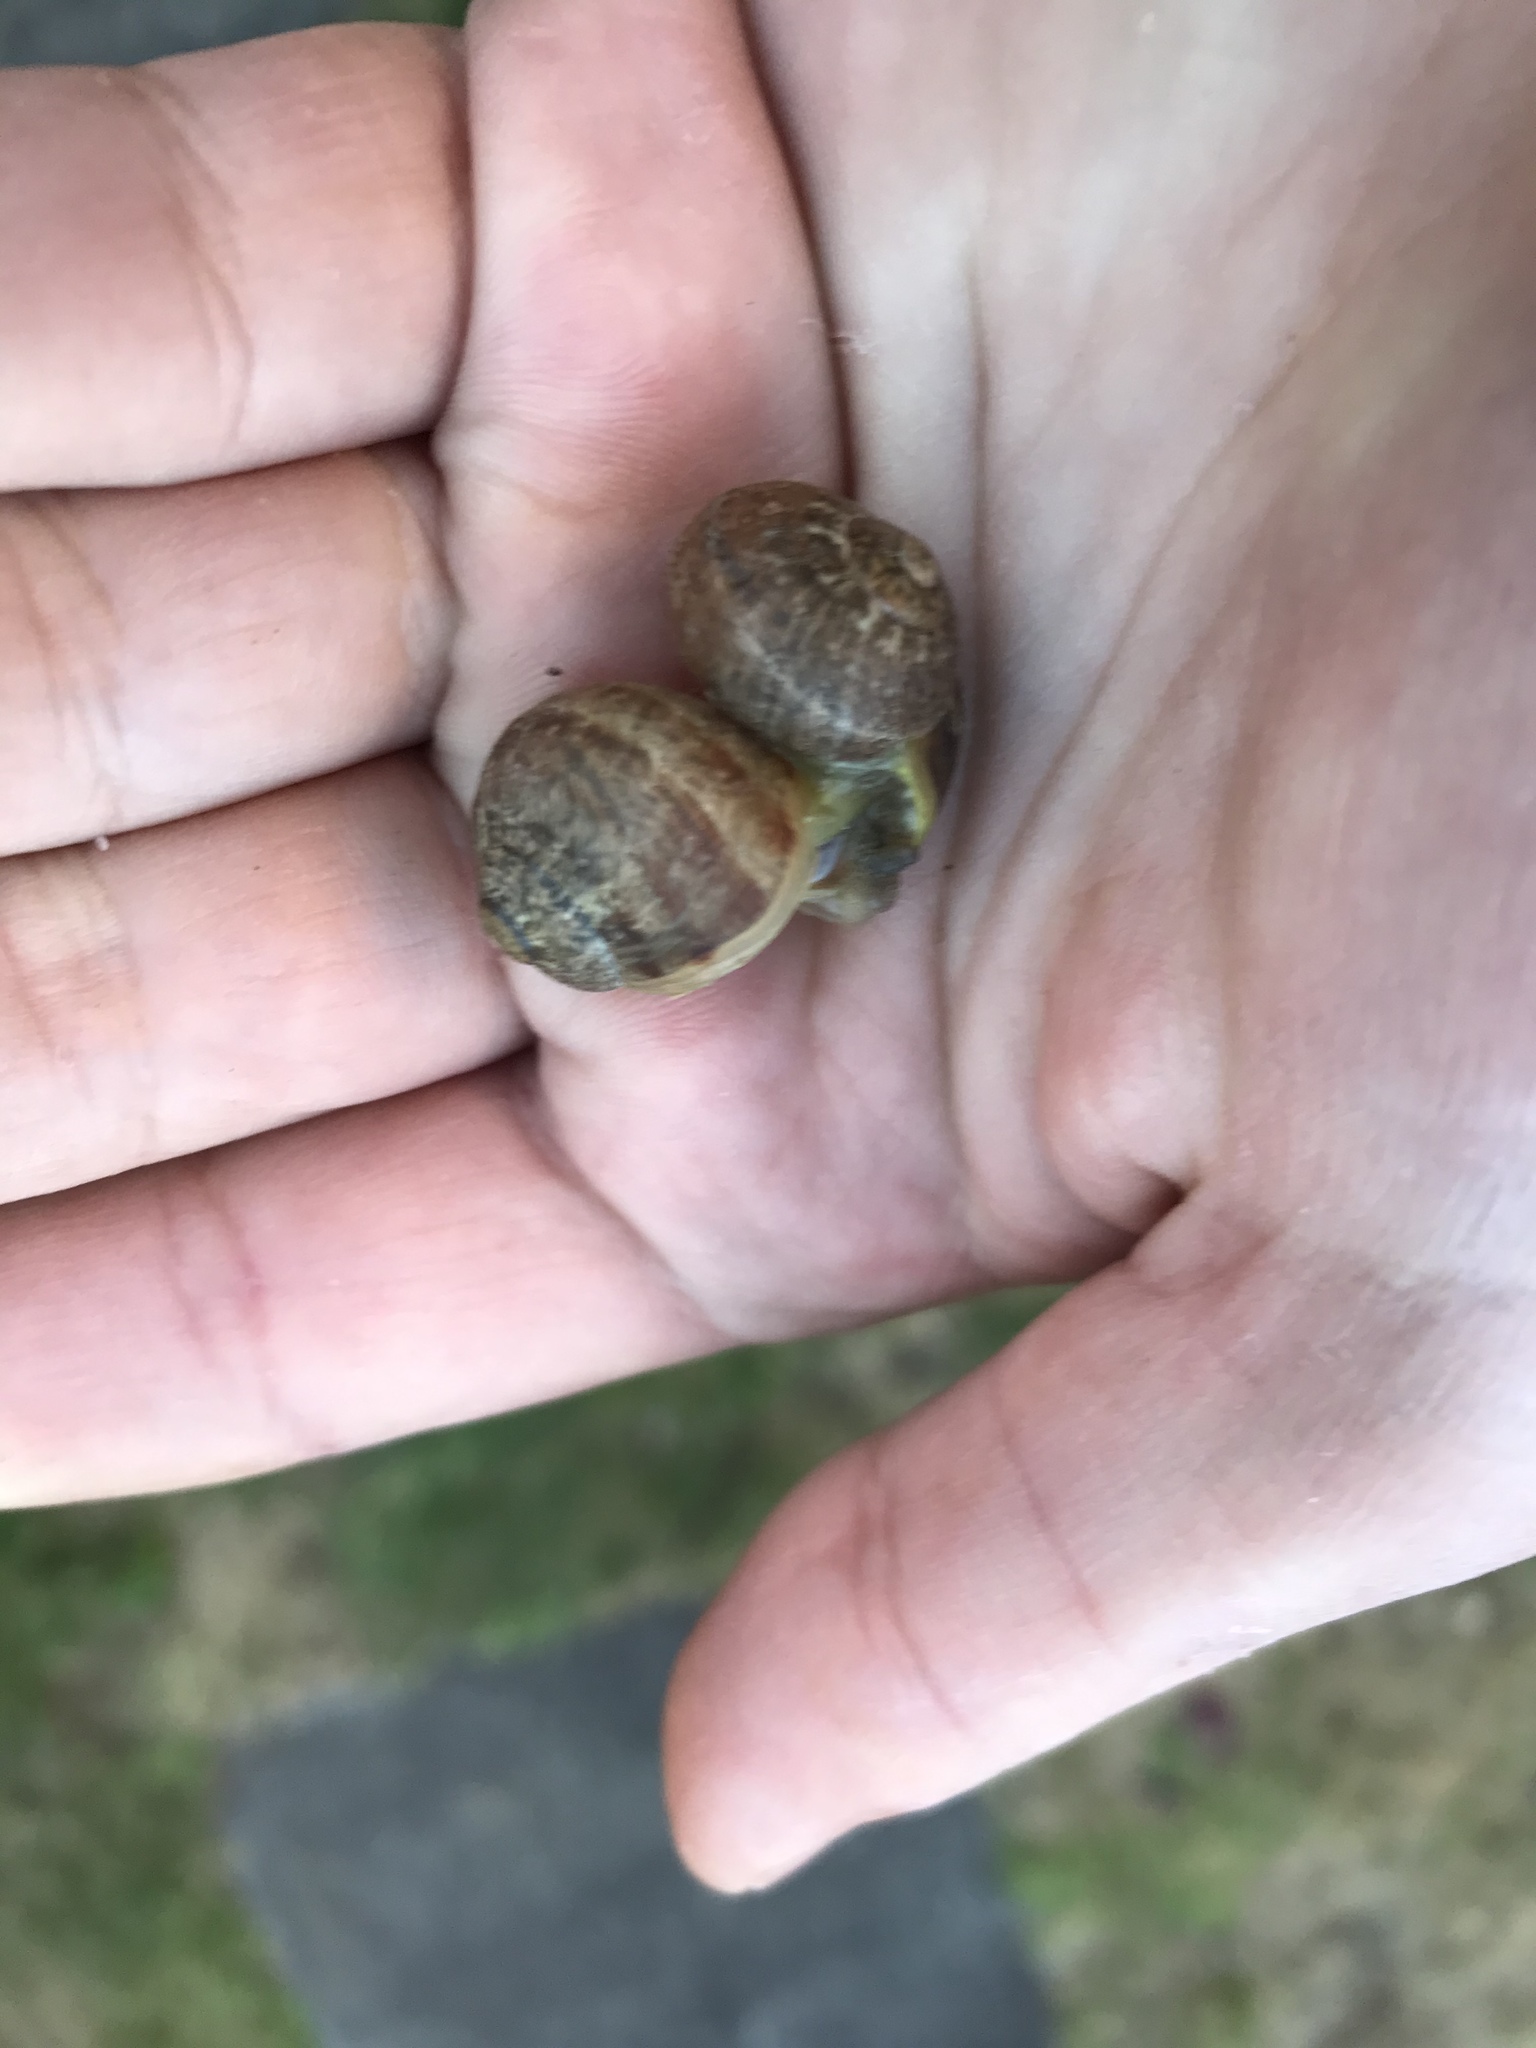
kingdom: Animalia
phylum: Mollusca
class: Gastropoda
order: Stylommatophora
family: Helicidae
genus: Cornu
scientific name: Cornu aspersum
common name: Brown garden snail
